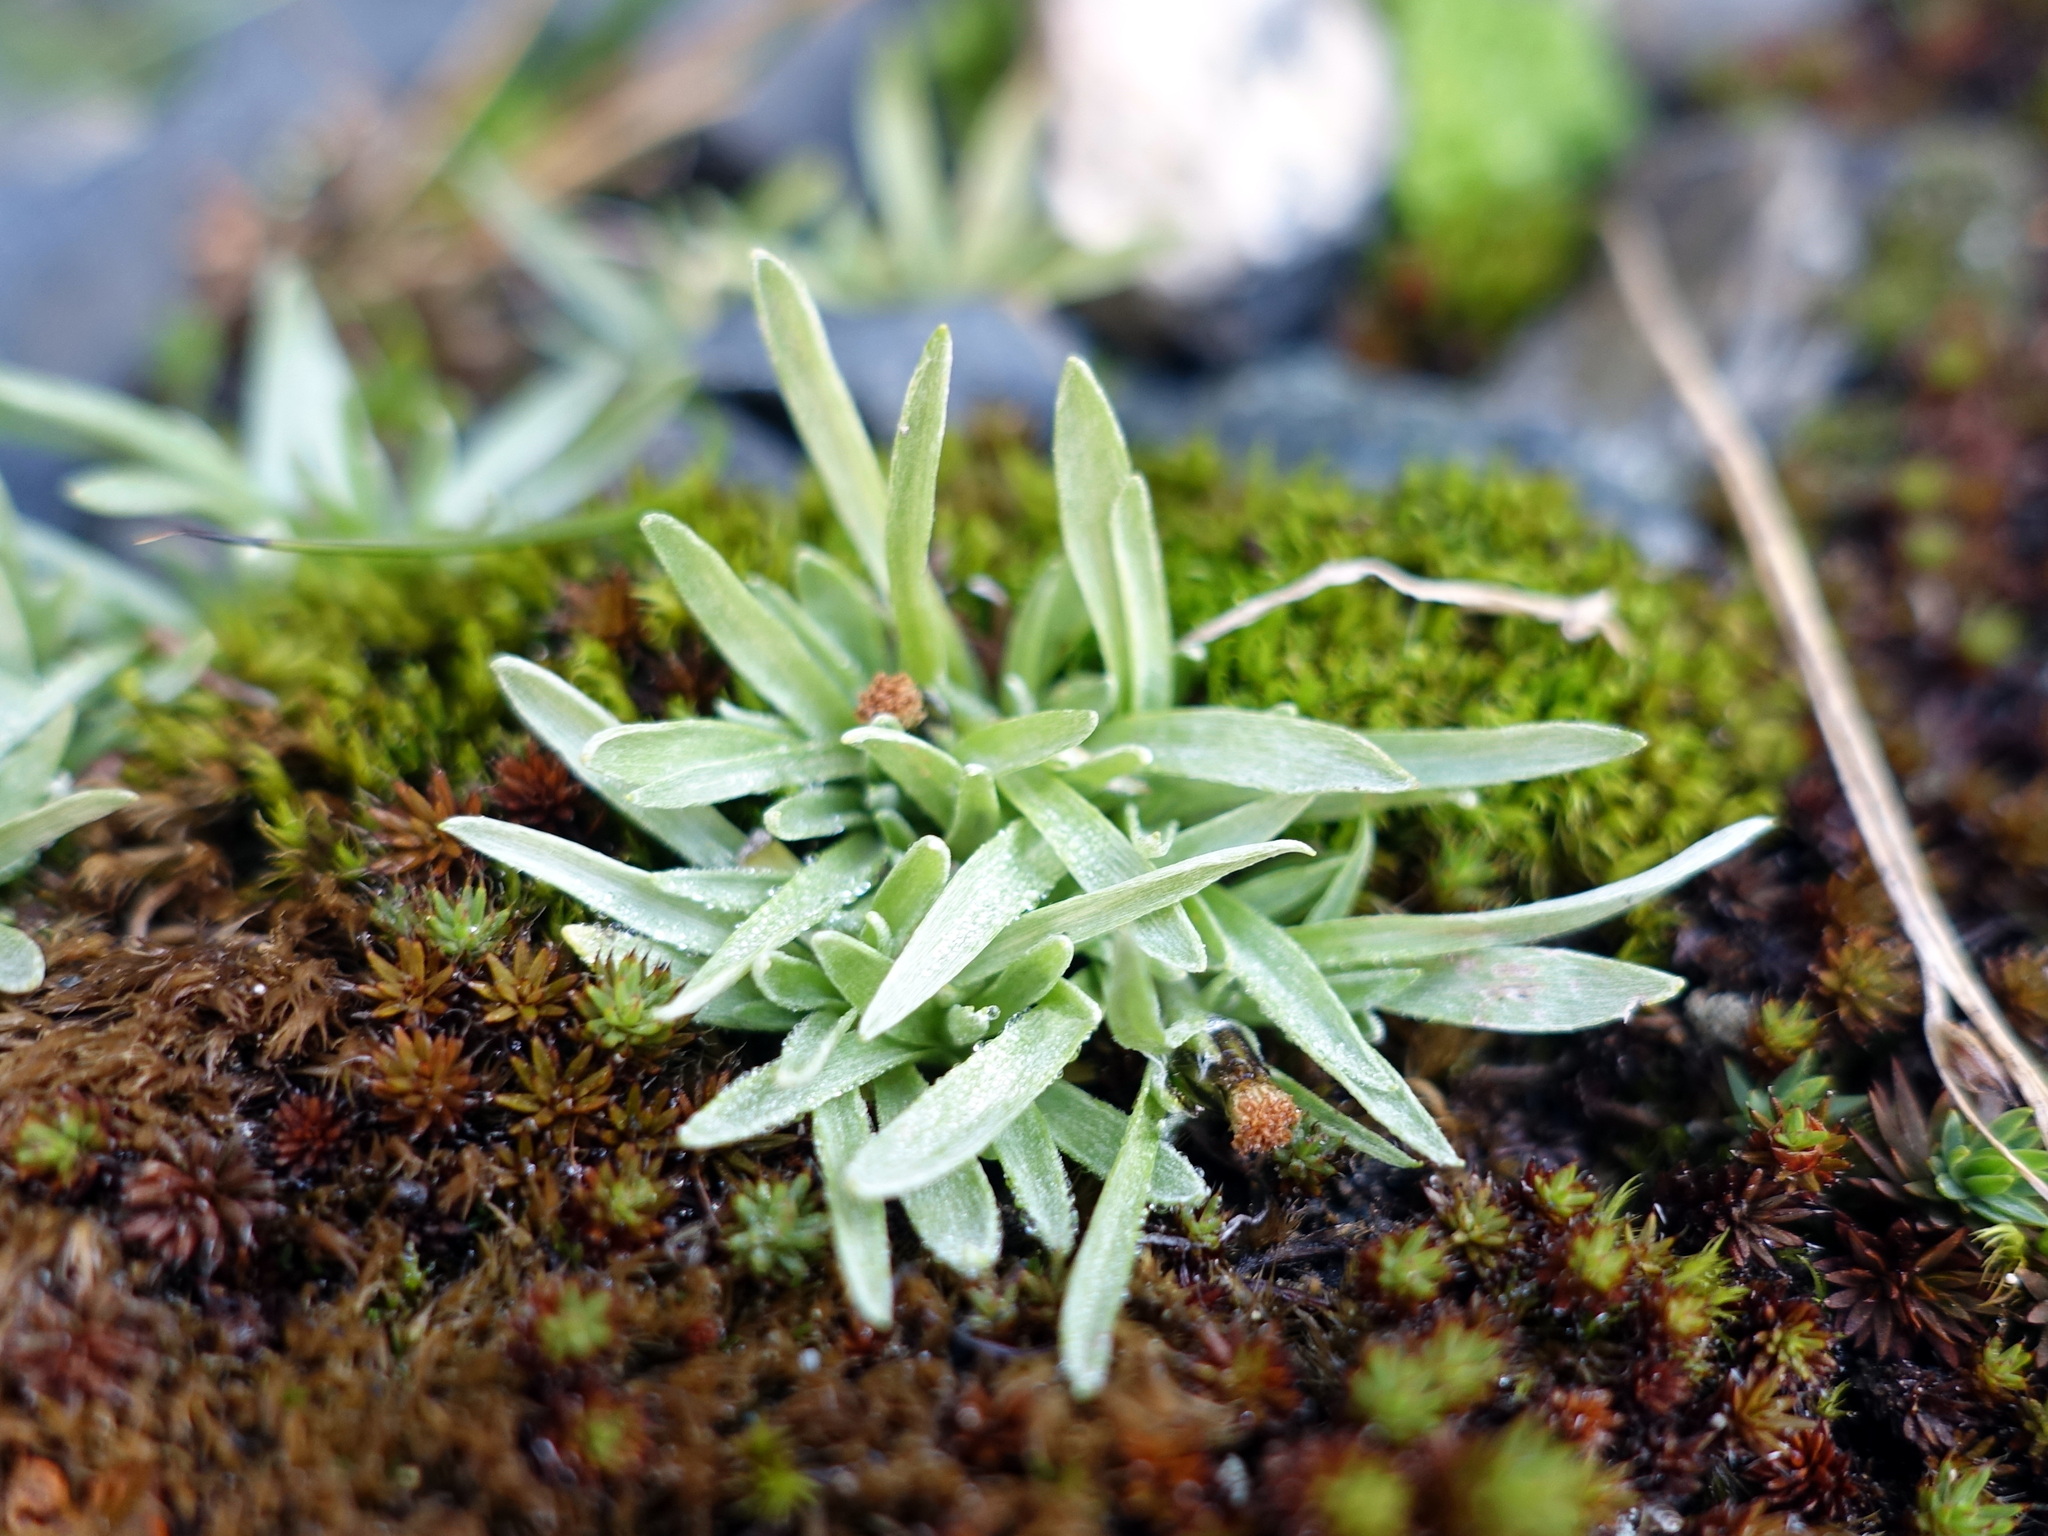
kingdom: Plantae
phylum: Tracheophyta
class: Magnoliopsida
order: Asterales
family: Asteraceae
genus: Omalotheca
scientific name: Omalotheca supina
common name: Alpine arctic-cudweed
